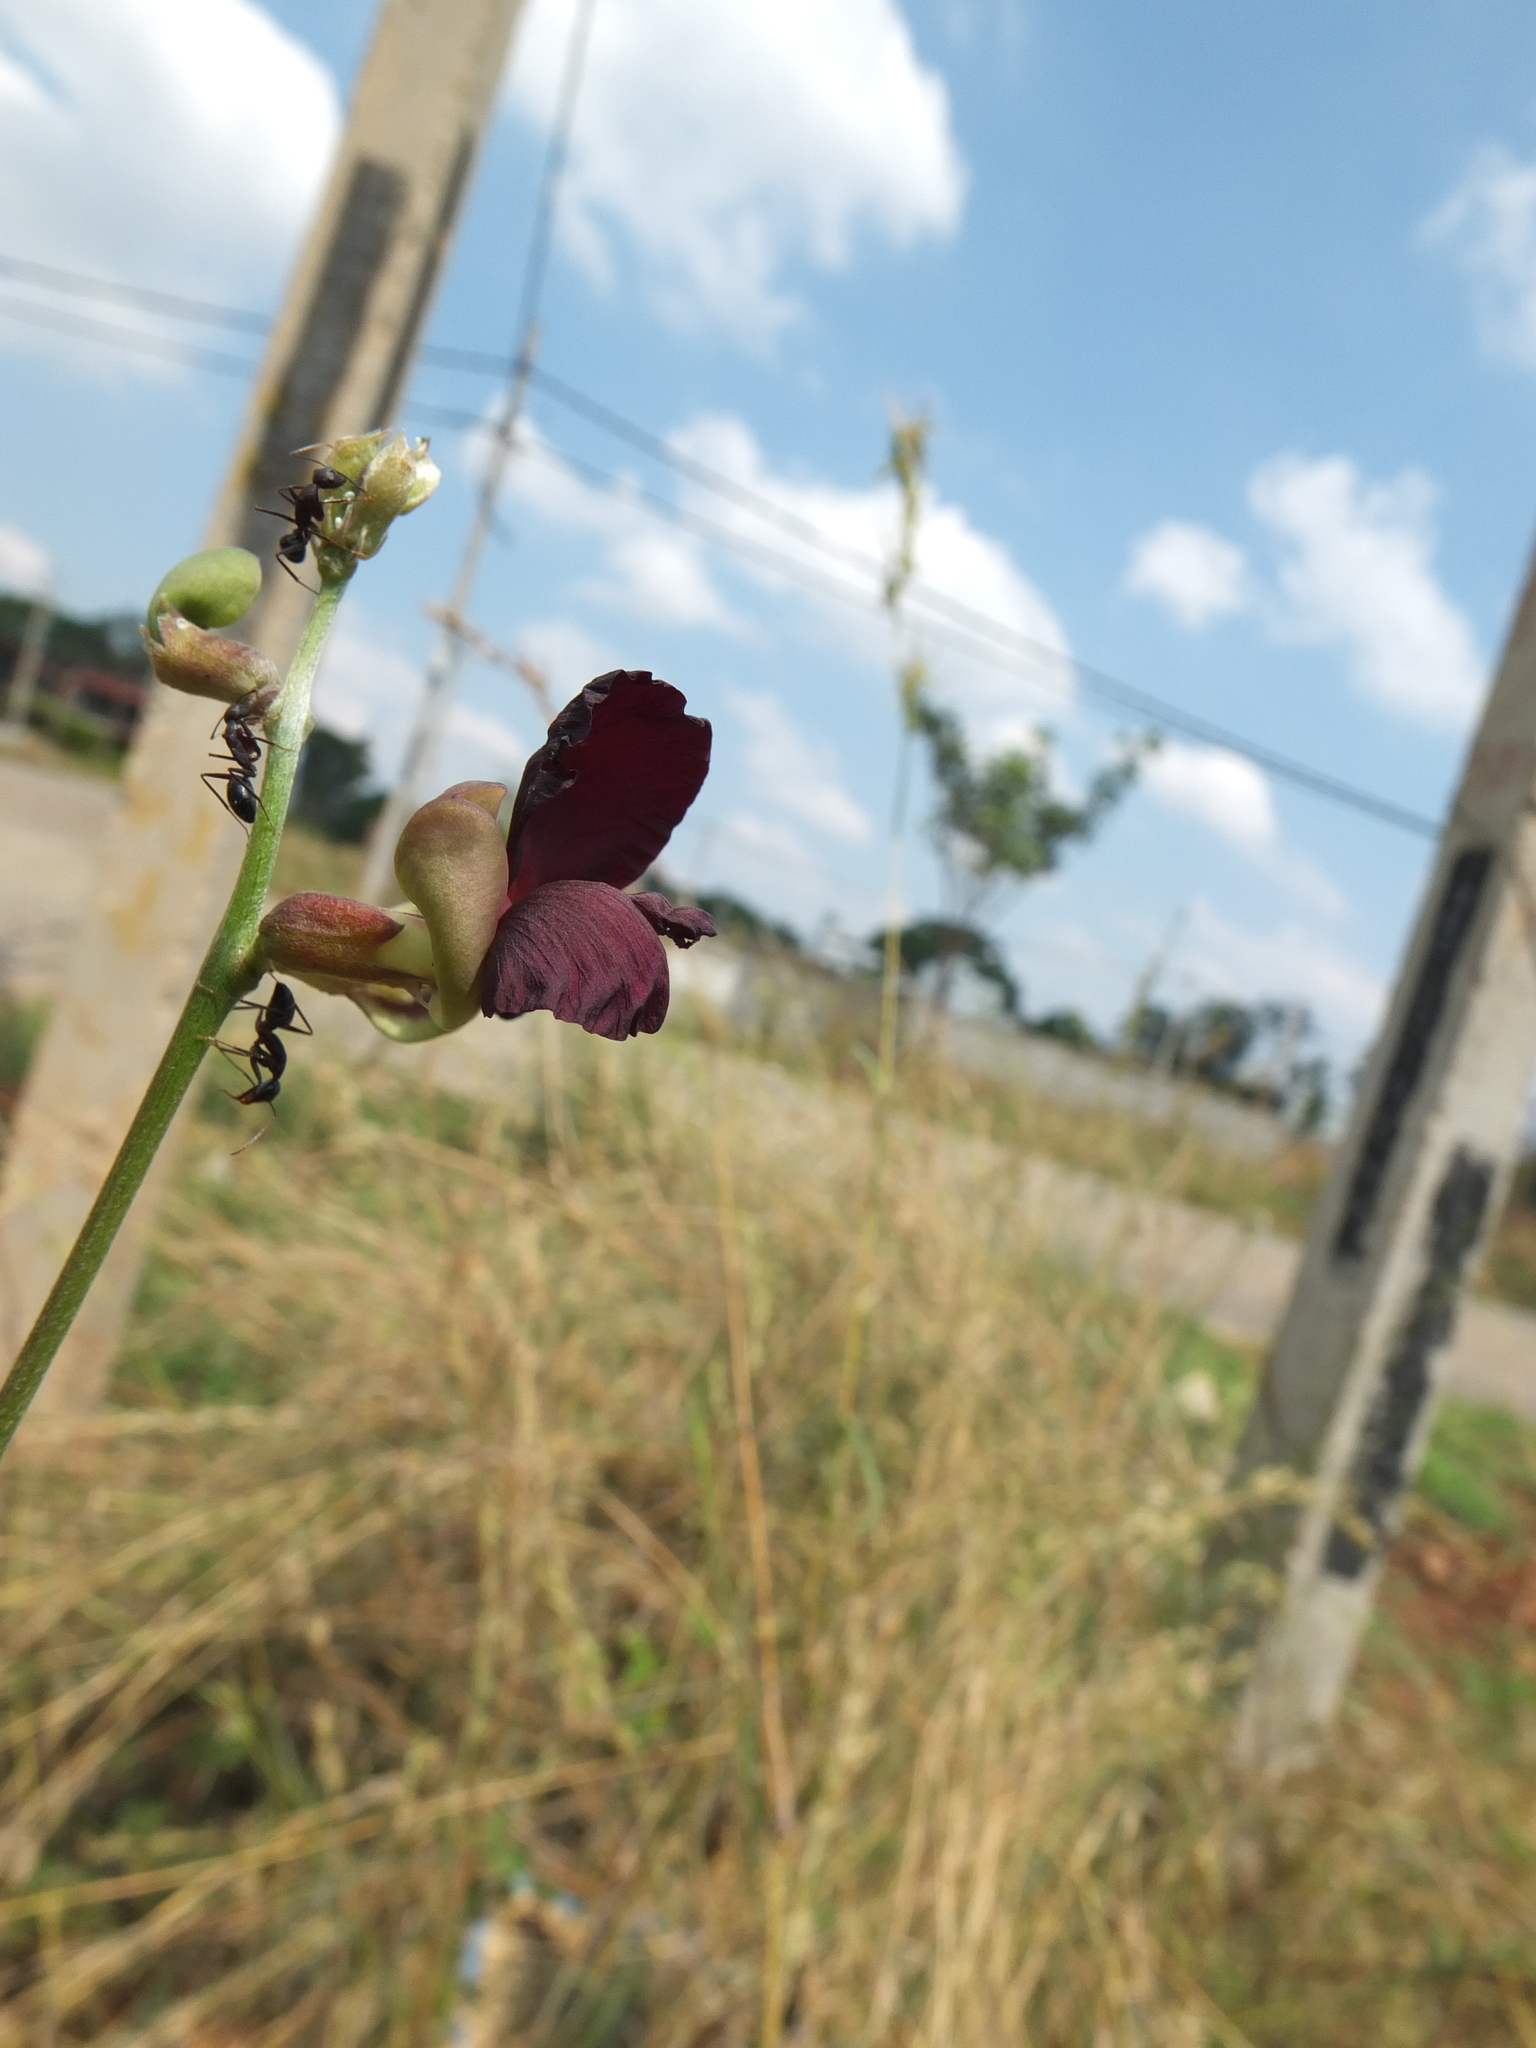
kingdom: Plantae
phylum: Tracheophyta
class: Magnoliopsida
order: Fabales
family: Fabaceae
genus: Macroptilium
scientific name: Macroptilium atropurpureum
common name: Purple bushbean
